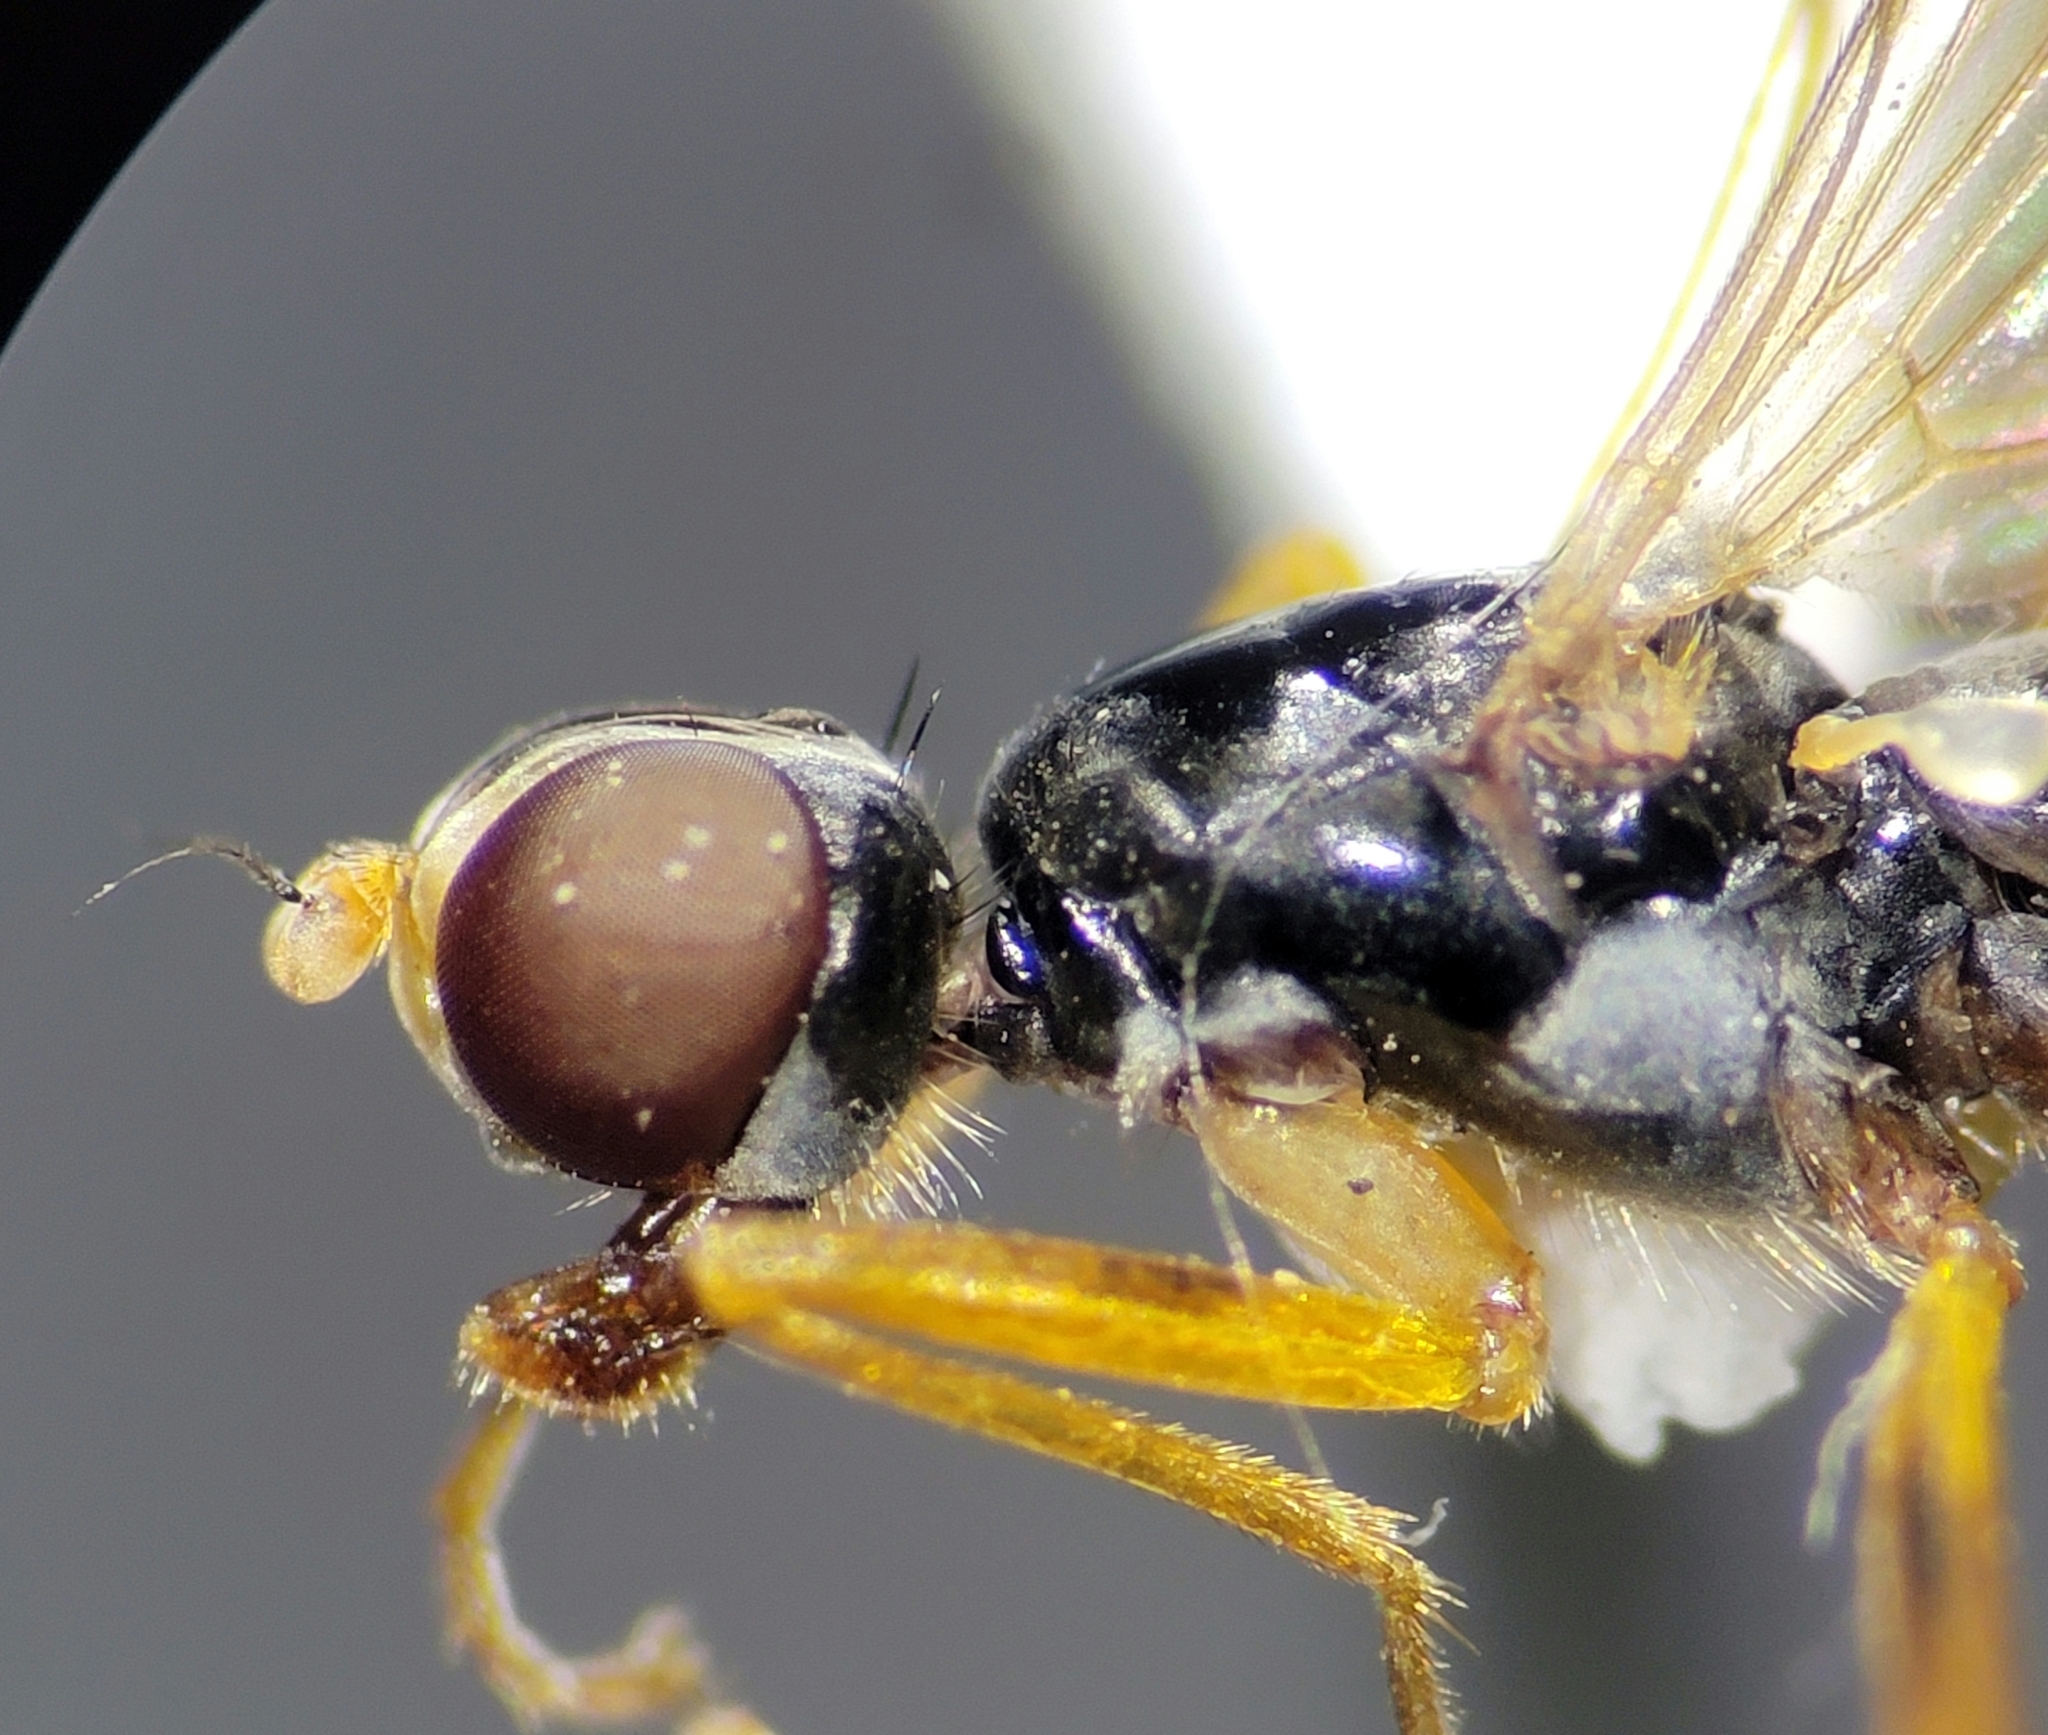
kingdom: Animalia
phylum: Arthropoda
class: Insecta
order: Diptera
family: Micropezidae
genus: Compsobata
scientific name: Compsobata mima
